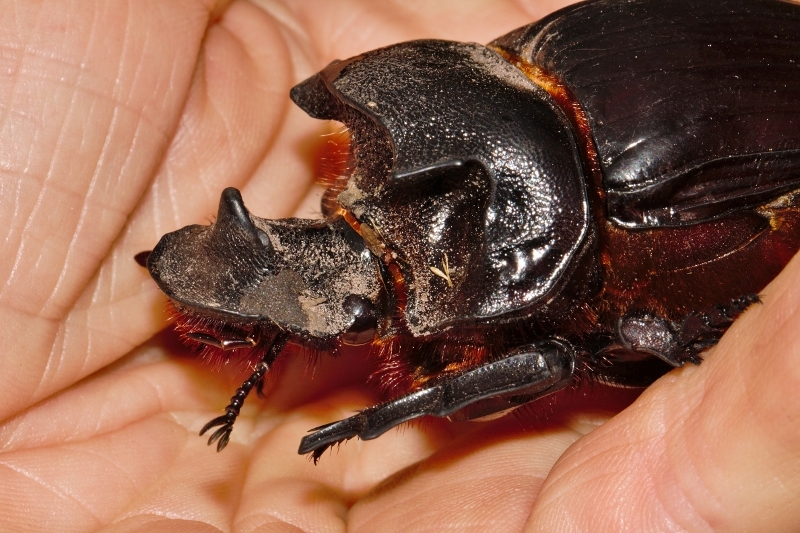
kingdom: Animalia
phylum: Arthropoda
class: Insecta
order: Coleoptera
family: Scarabaeidae
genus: Heliocopris
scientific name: Heliocopris colossus
